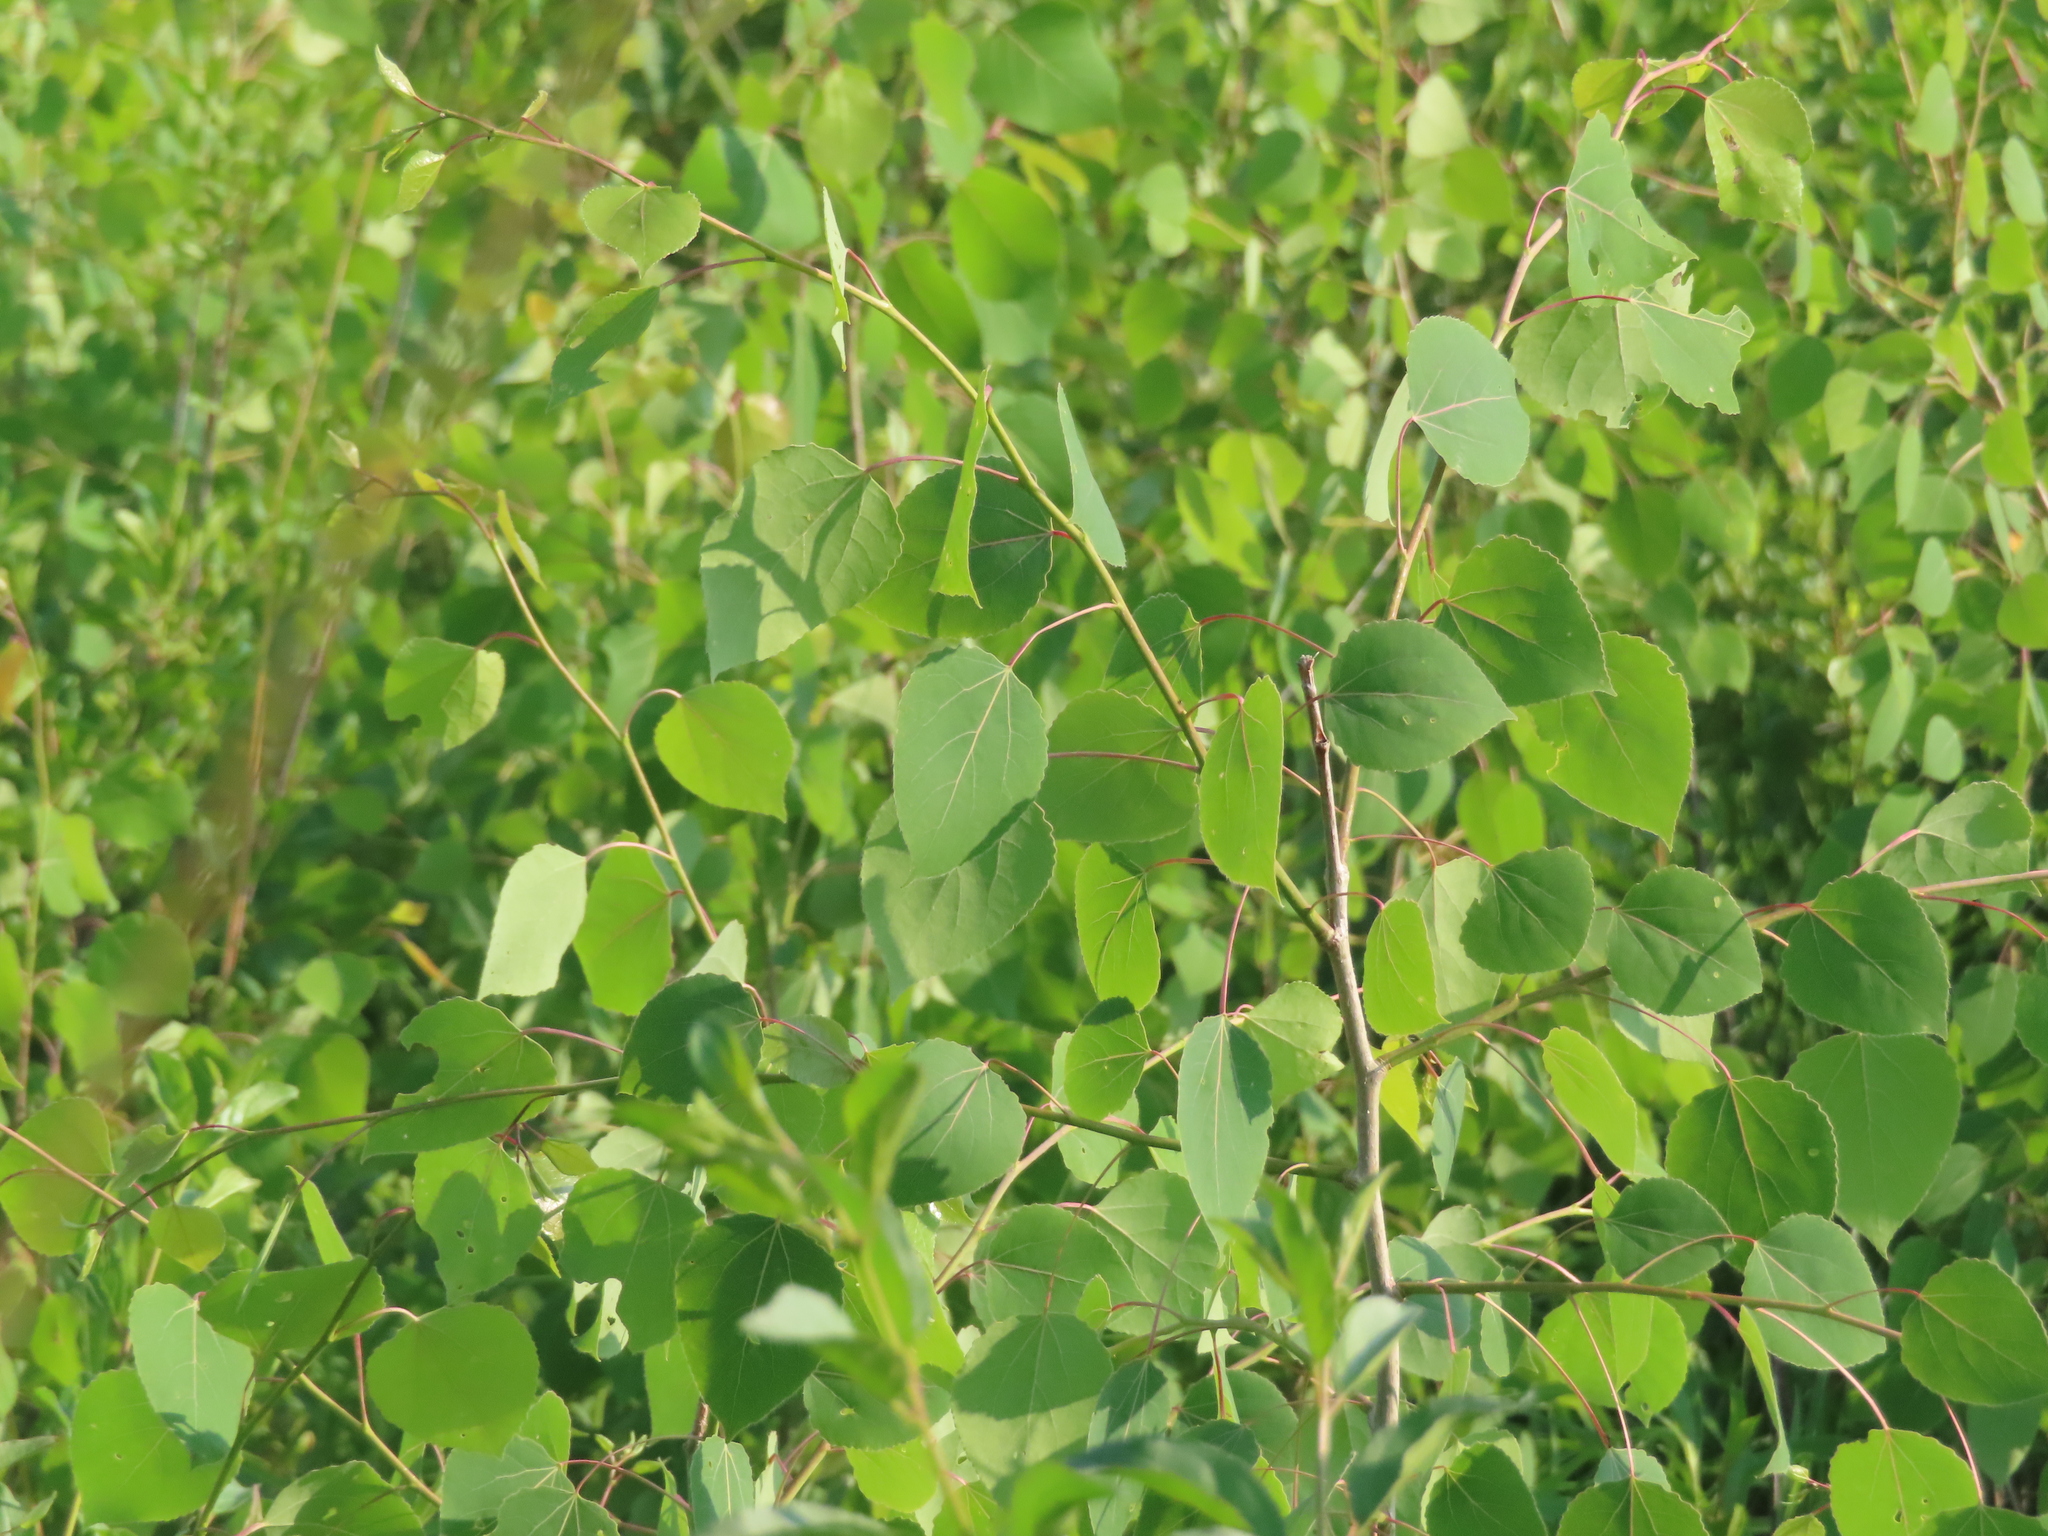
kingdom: Plantae
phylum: Tracheophyta
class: Magnoliopsida
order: Malpighiales
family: Salicaceae
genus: Populus
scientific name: Populus tremuloides
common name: Quaking aspen
